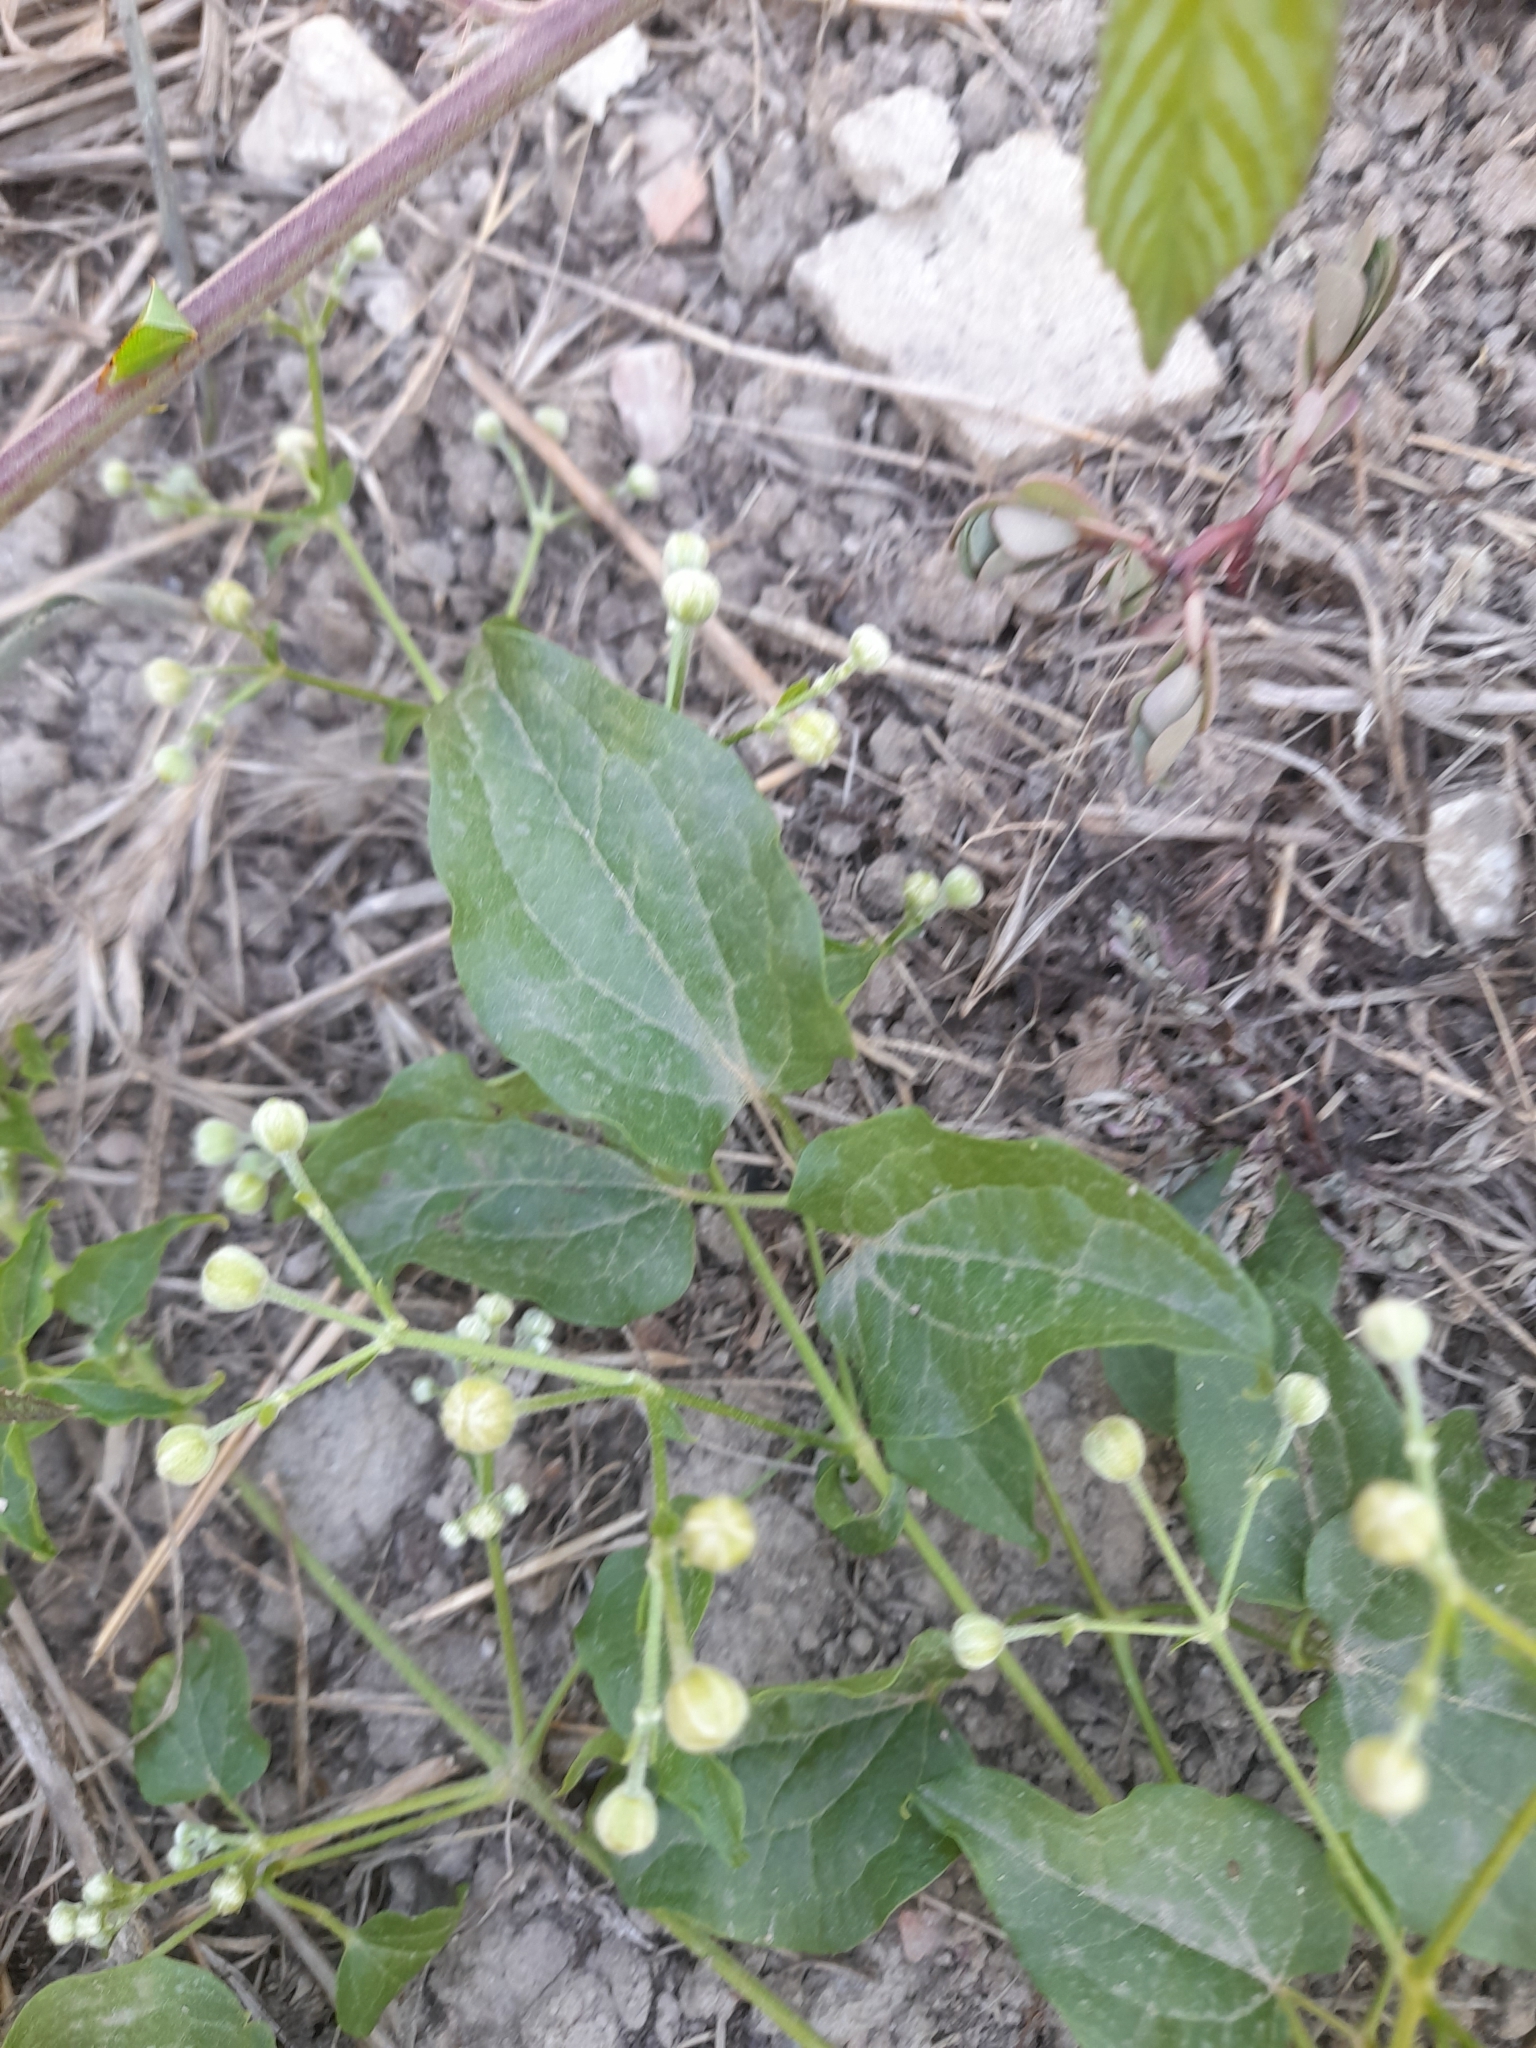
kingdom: Plantae
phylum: Tracheophyta
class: Magnoliopsida
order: Ranunculales
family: Ranunculaceae
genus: Clematis
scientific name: Clematis vitalba
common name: Evergreen clematis
